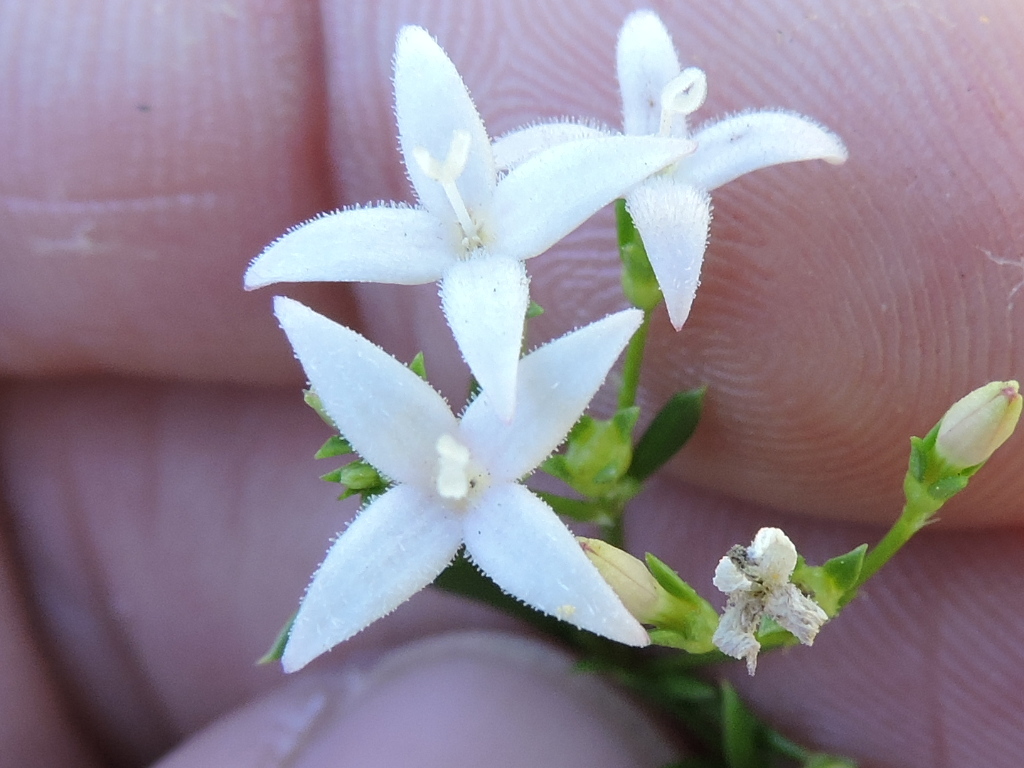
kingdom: Plantae
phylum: Tracheophyta
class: Magnoliopsida
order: Gentianales
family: Rubiaceae
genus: Stenaria
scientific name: Stenaria nigricans
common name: Diamondflowers
